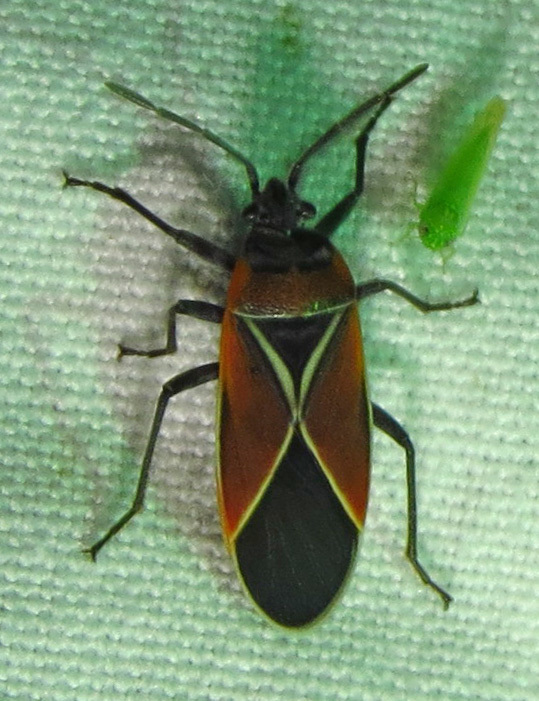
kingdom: Animalia
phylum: Arthropoda
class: Insecta
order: Hemiptera
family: Lygaeidae
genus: Neacoryphus
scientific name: Neacoryphus bicrucis
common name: Lygaeid bug
